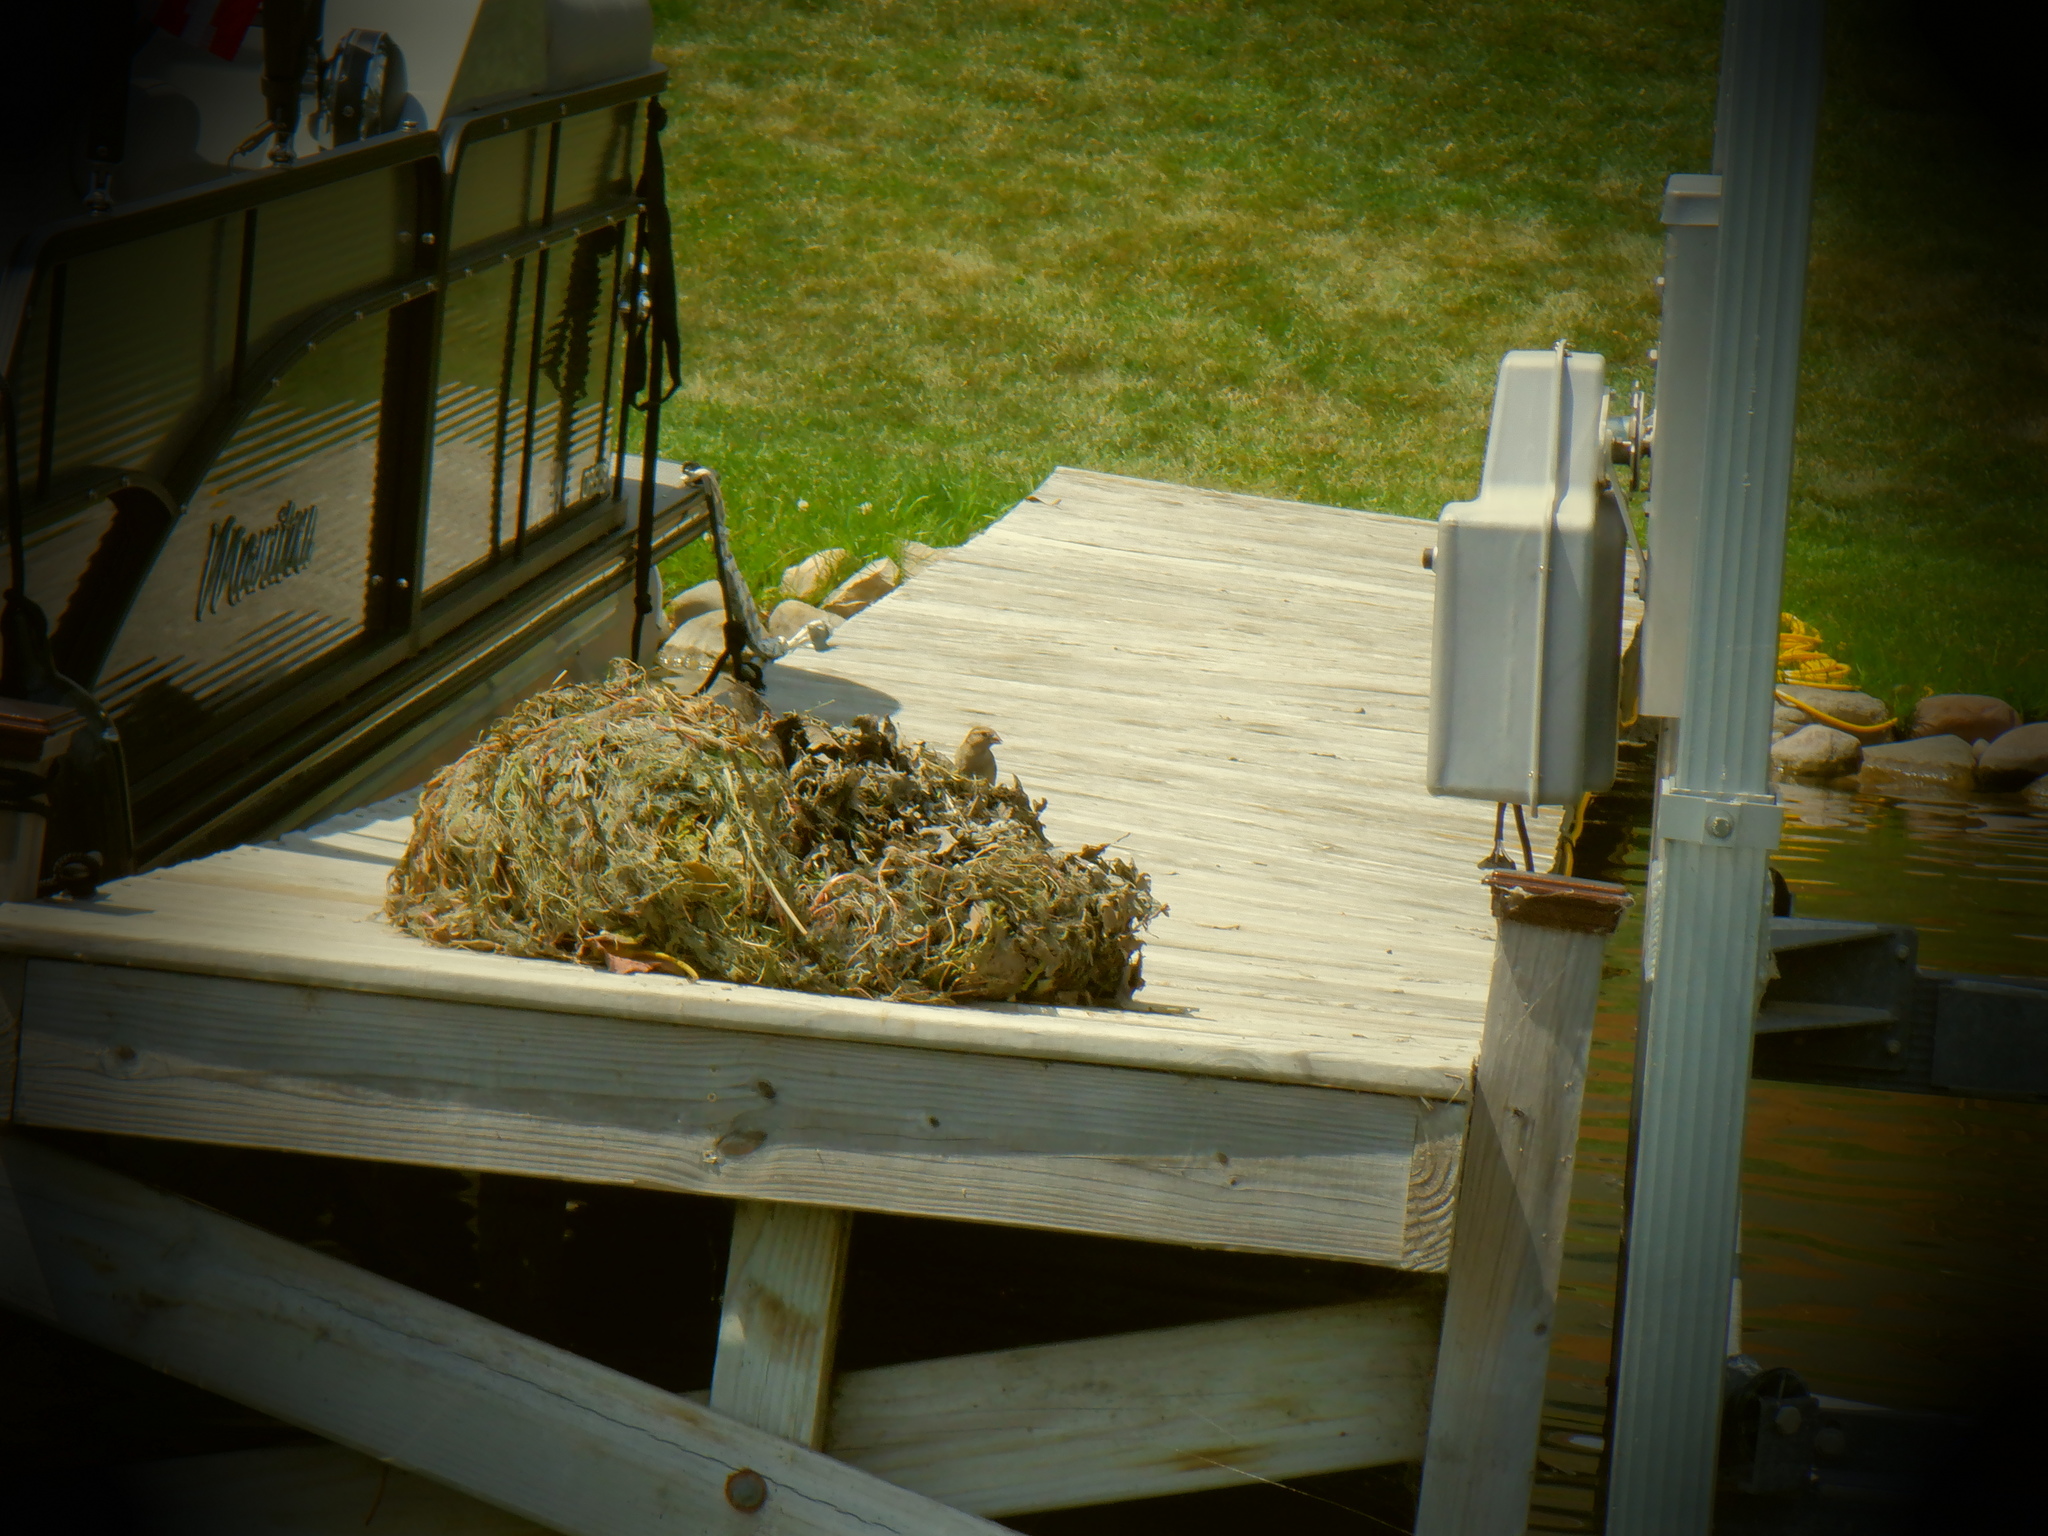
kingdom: Animalia
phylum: Chordata
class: Aves
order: Passeriformes
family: Passeridae
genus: Passer
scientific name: Passer domesticus
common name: House sparrow
